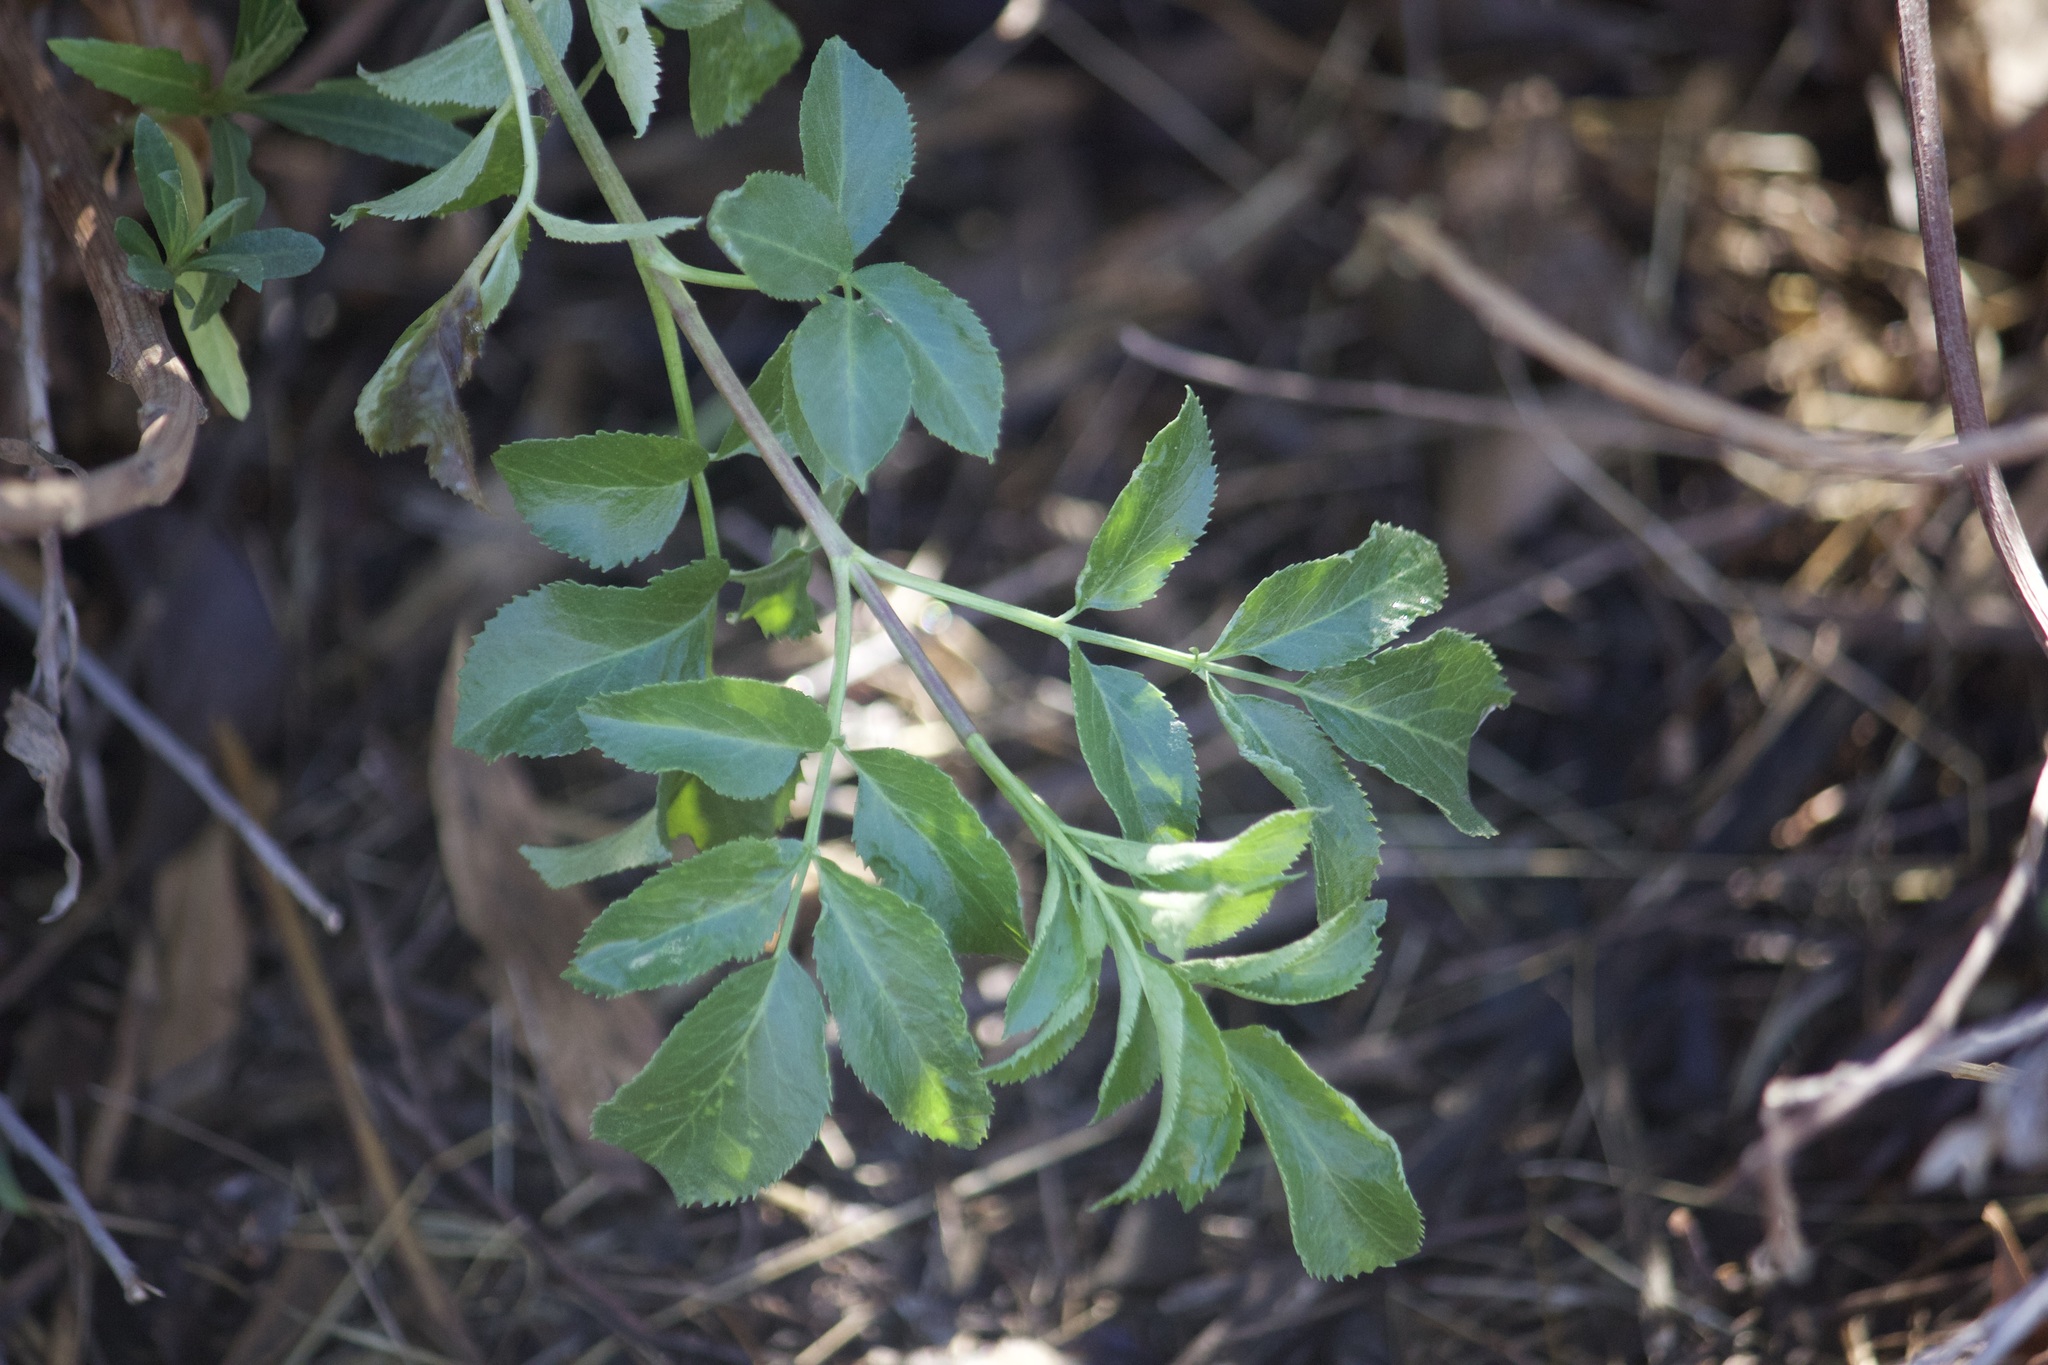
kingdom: Plantae
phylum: Tracheophyta
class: Magnoliopsida
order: Dipsacales
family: Viburnaceae
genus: Sambucus
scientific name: Sambucus cerulea
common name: Blue elder
